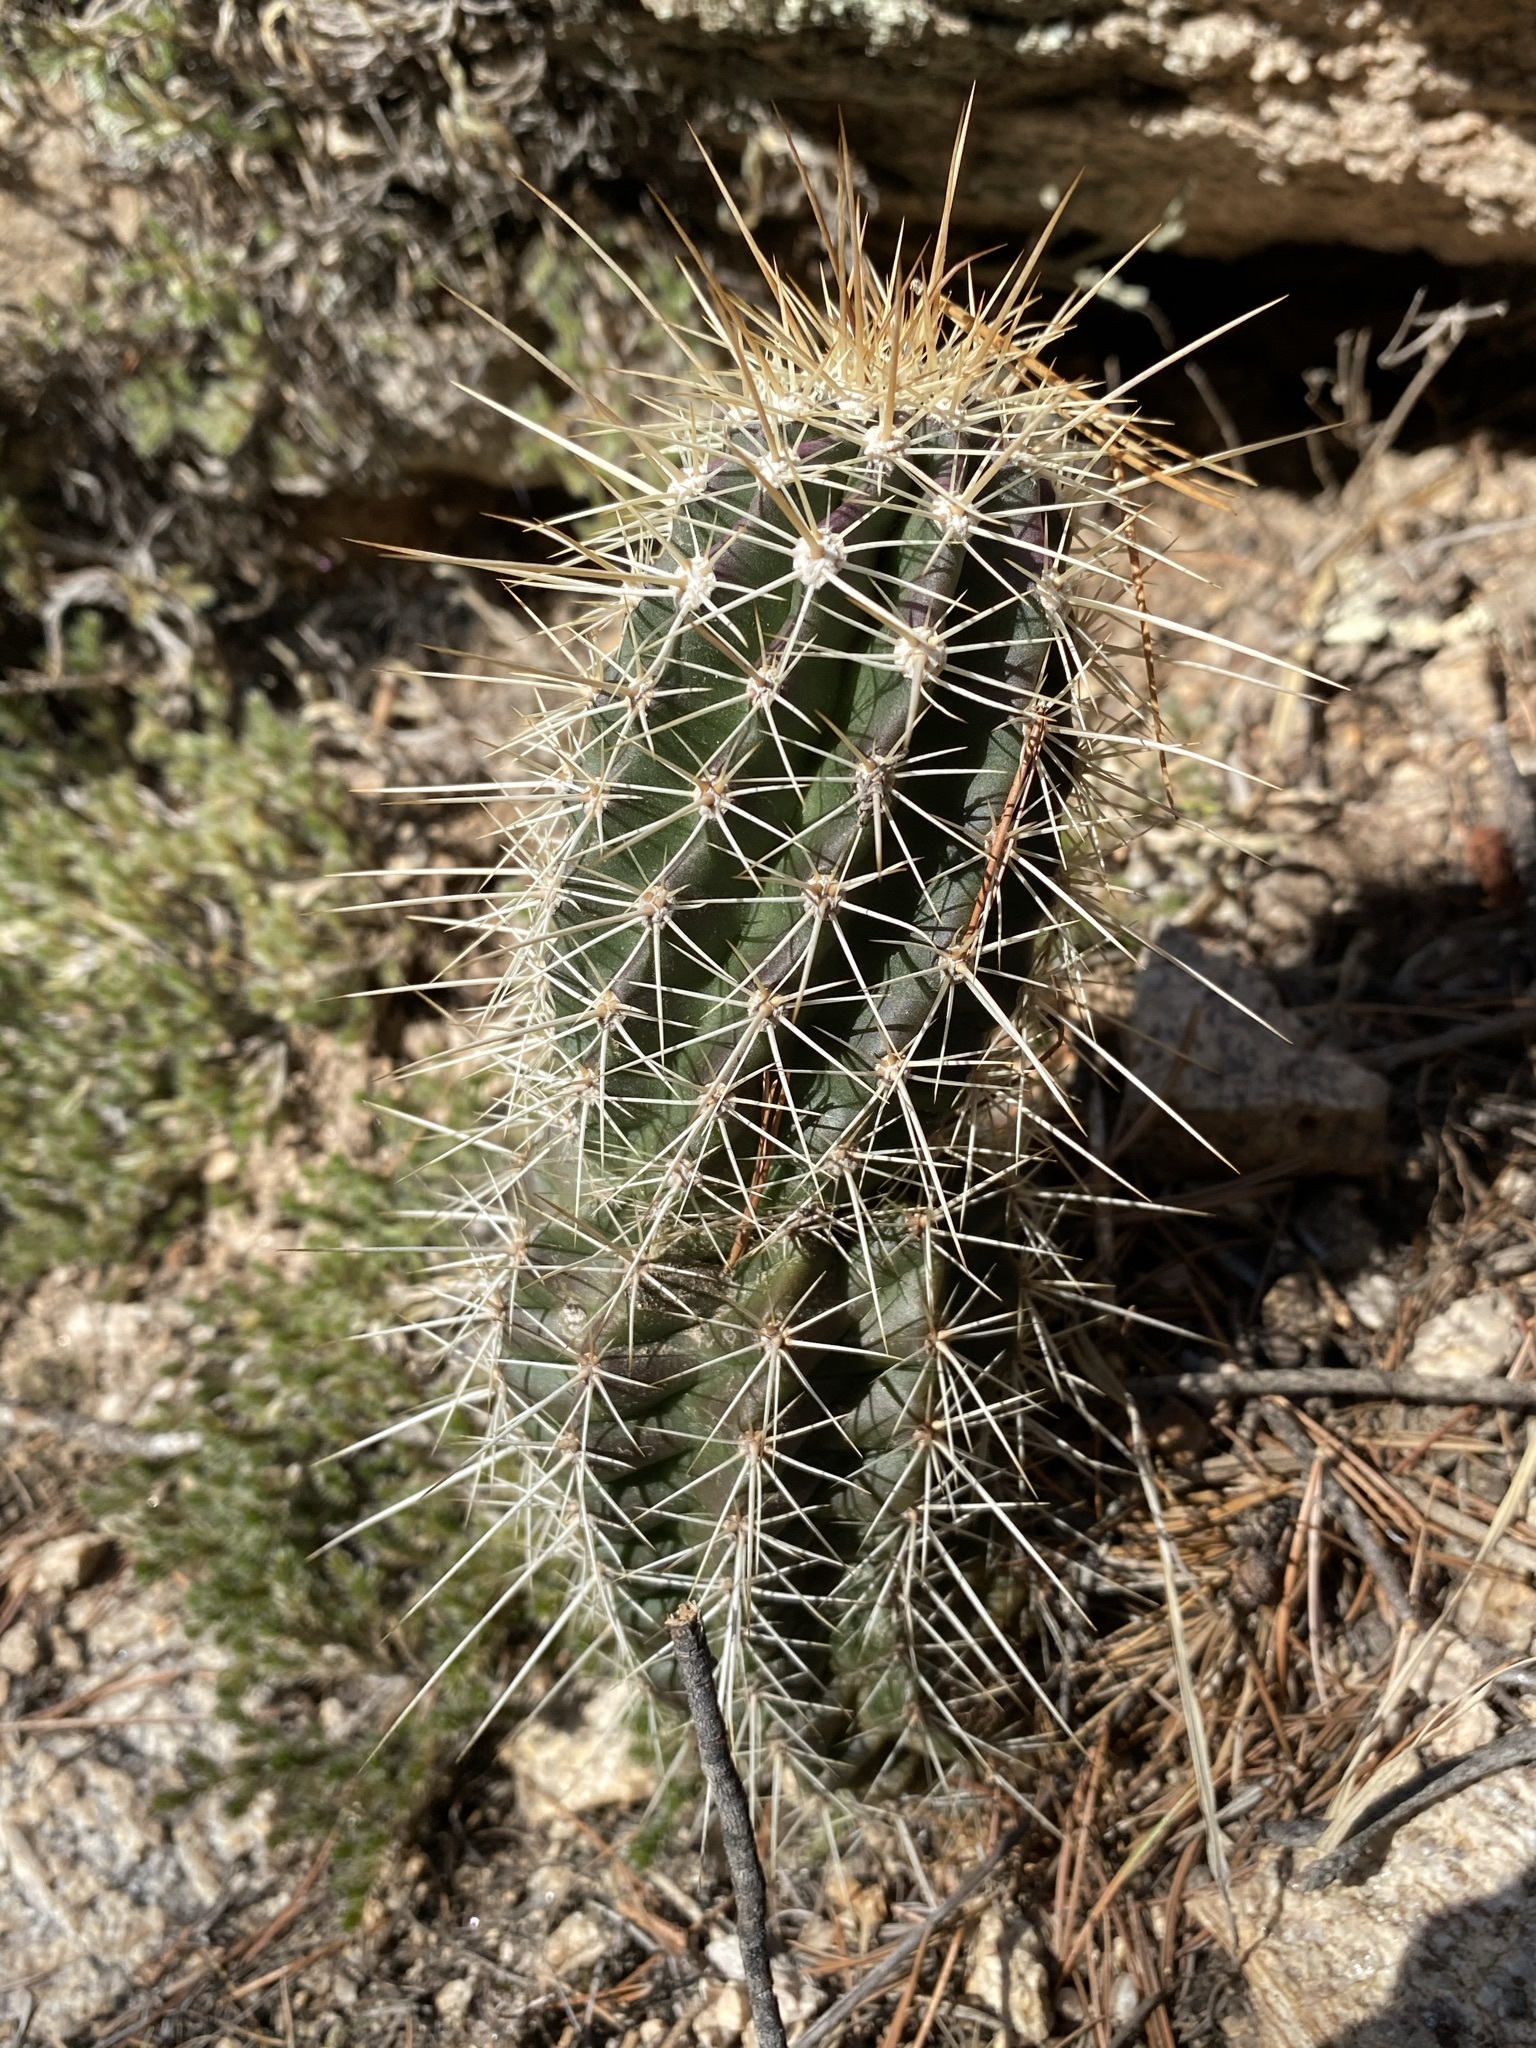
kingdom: Plantae
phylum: Tracheophyta
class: Magnoliopsida
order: Caryophyllales
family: Cactaceae
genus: Echinocereus
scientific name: Echinocereus coccineus
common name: Scarlet hedgehog cactus
